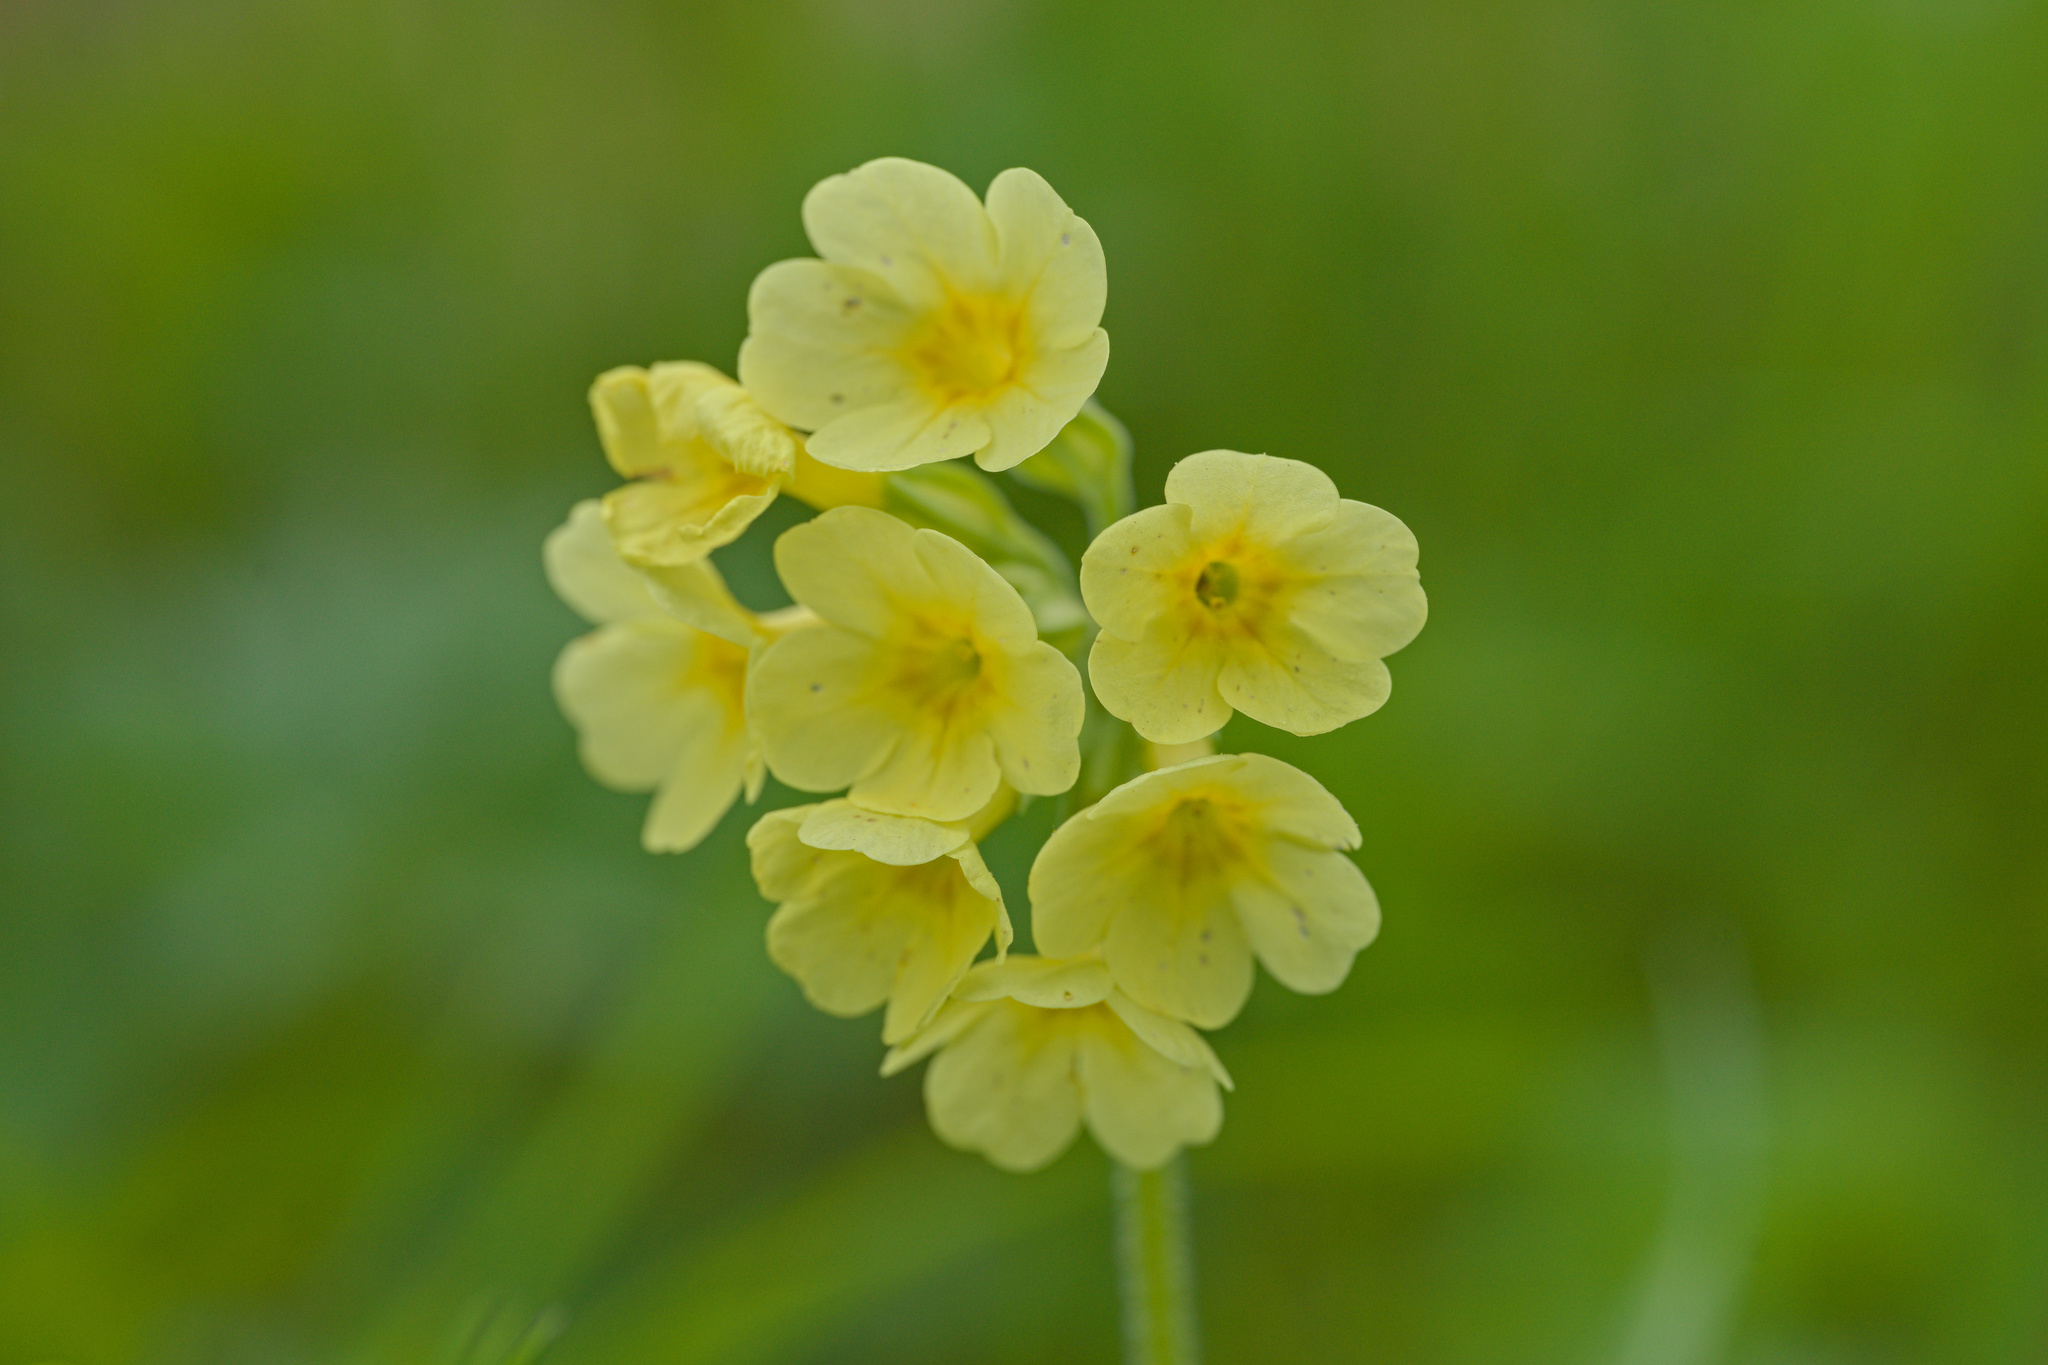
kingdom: Plantae
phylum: Tracheophyta
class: Magnoliopsida
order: Ericales
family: Primulaceae
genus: Primula
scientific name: Primula elatior
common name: Oxlip
